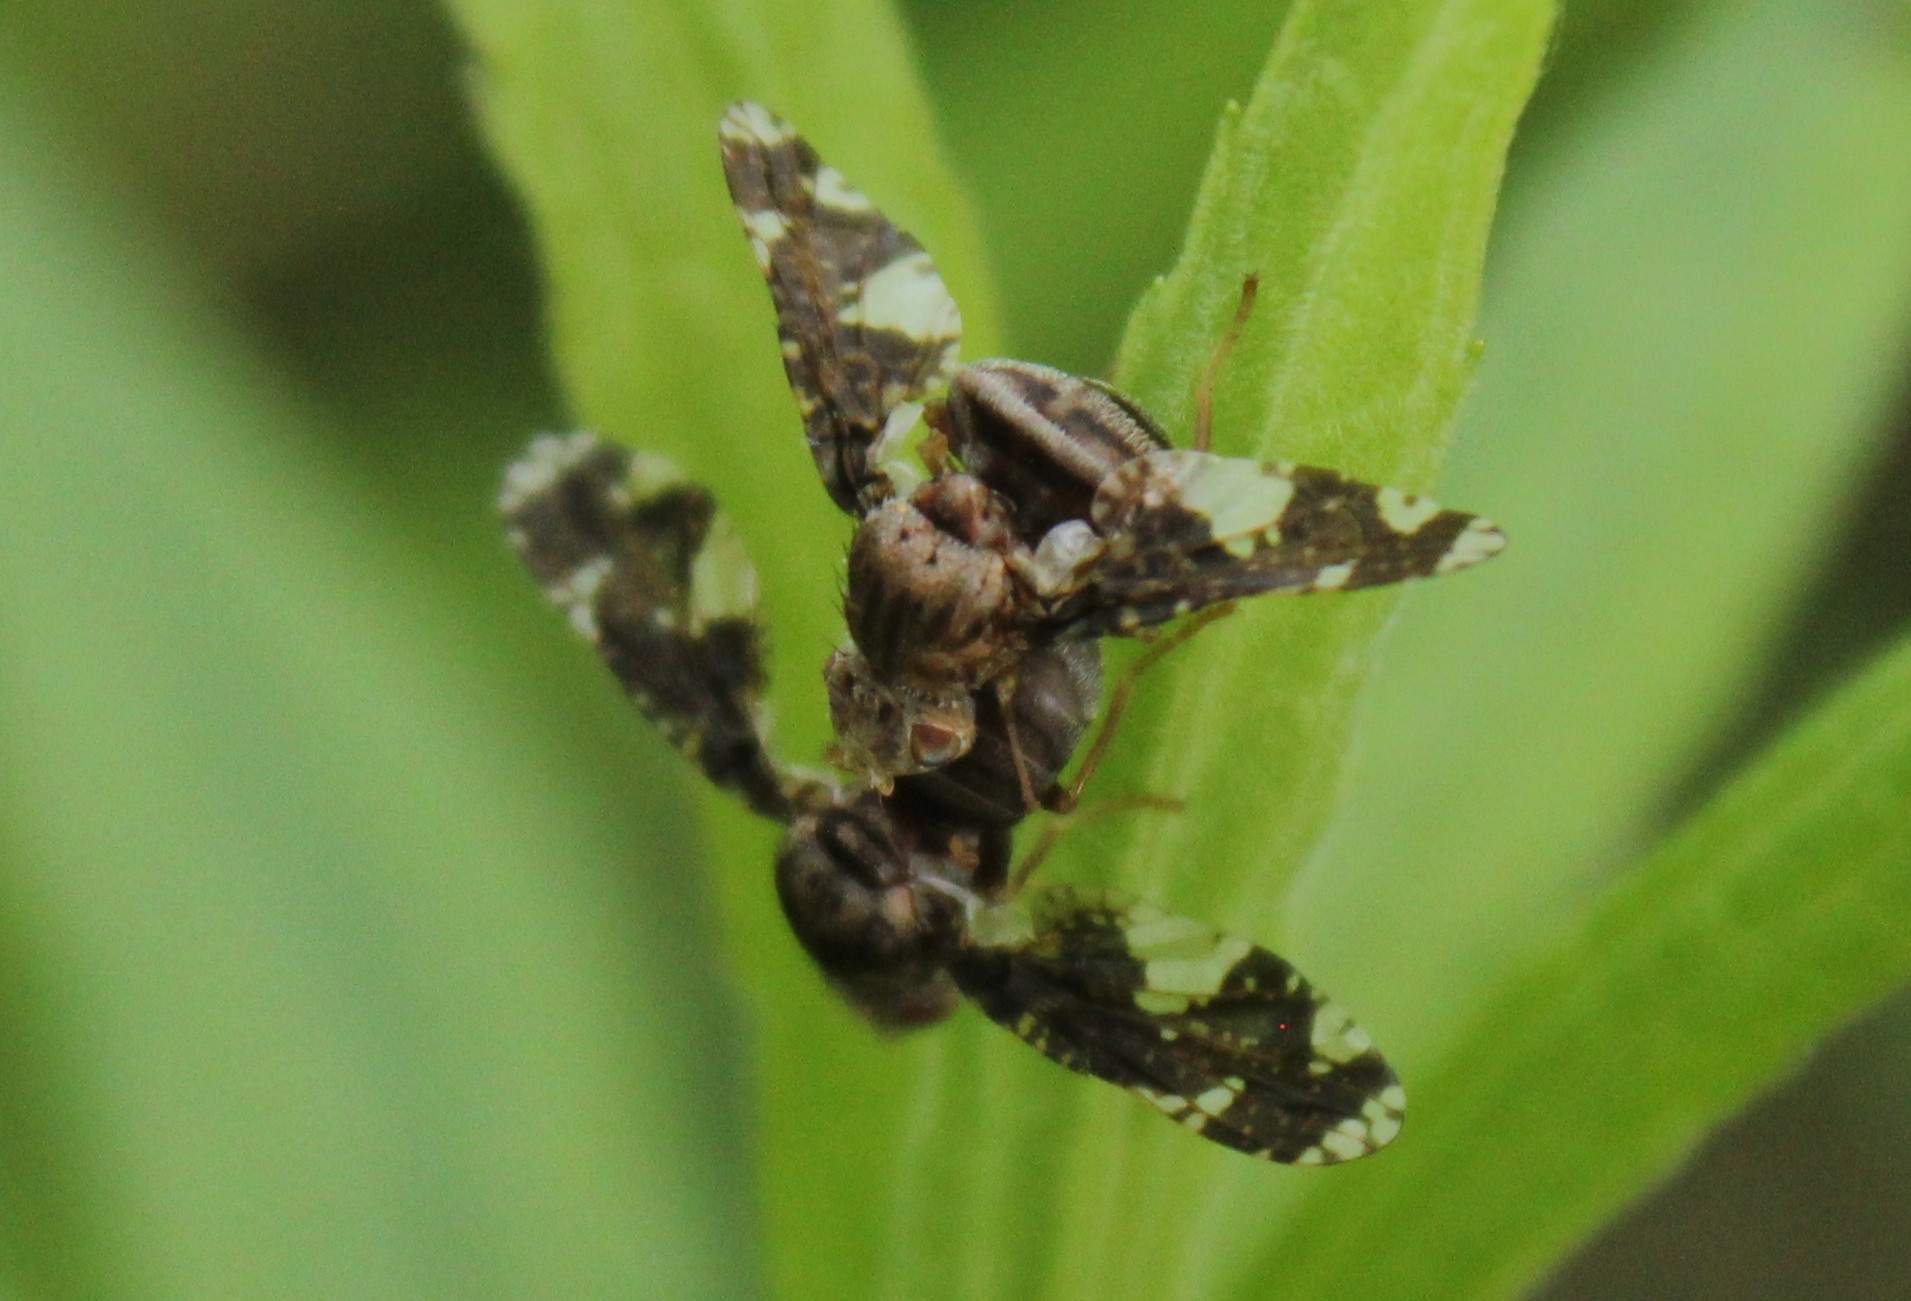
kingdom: Animalia
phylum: Arthropoda
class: Insecta
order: Diptera
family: Tephritidae
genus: Eurosta
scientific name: Eurosta solidaginis
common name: Goldenrod gall fly
